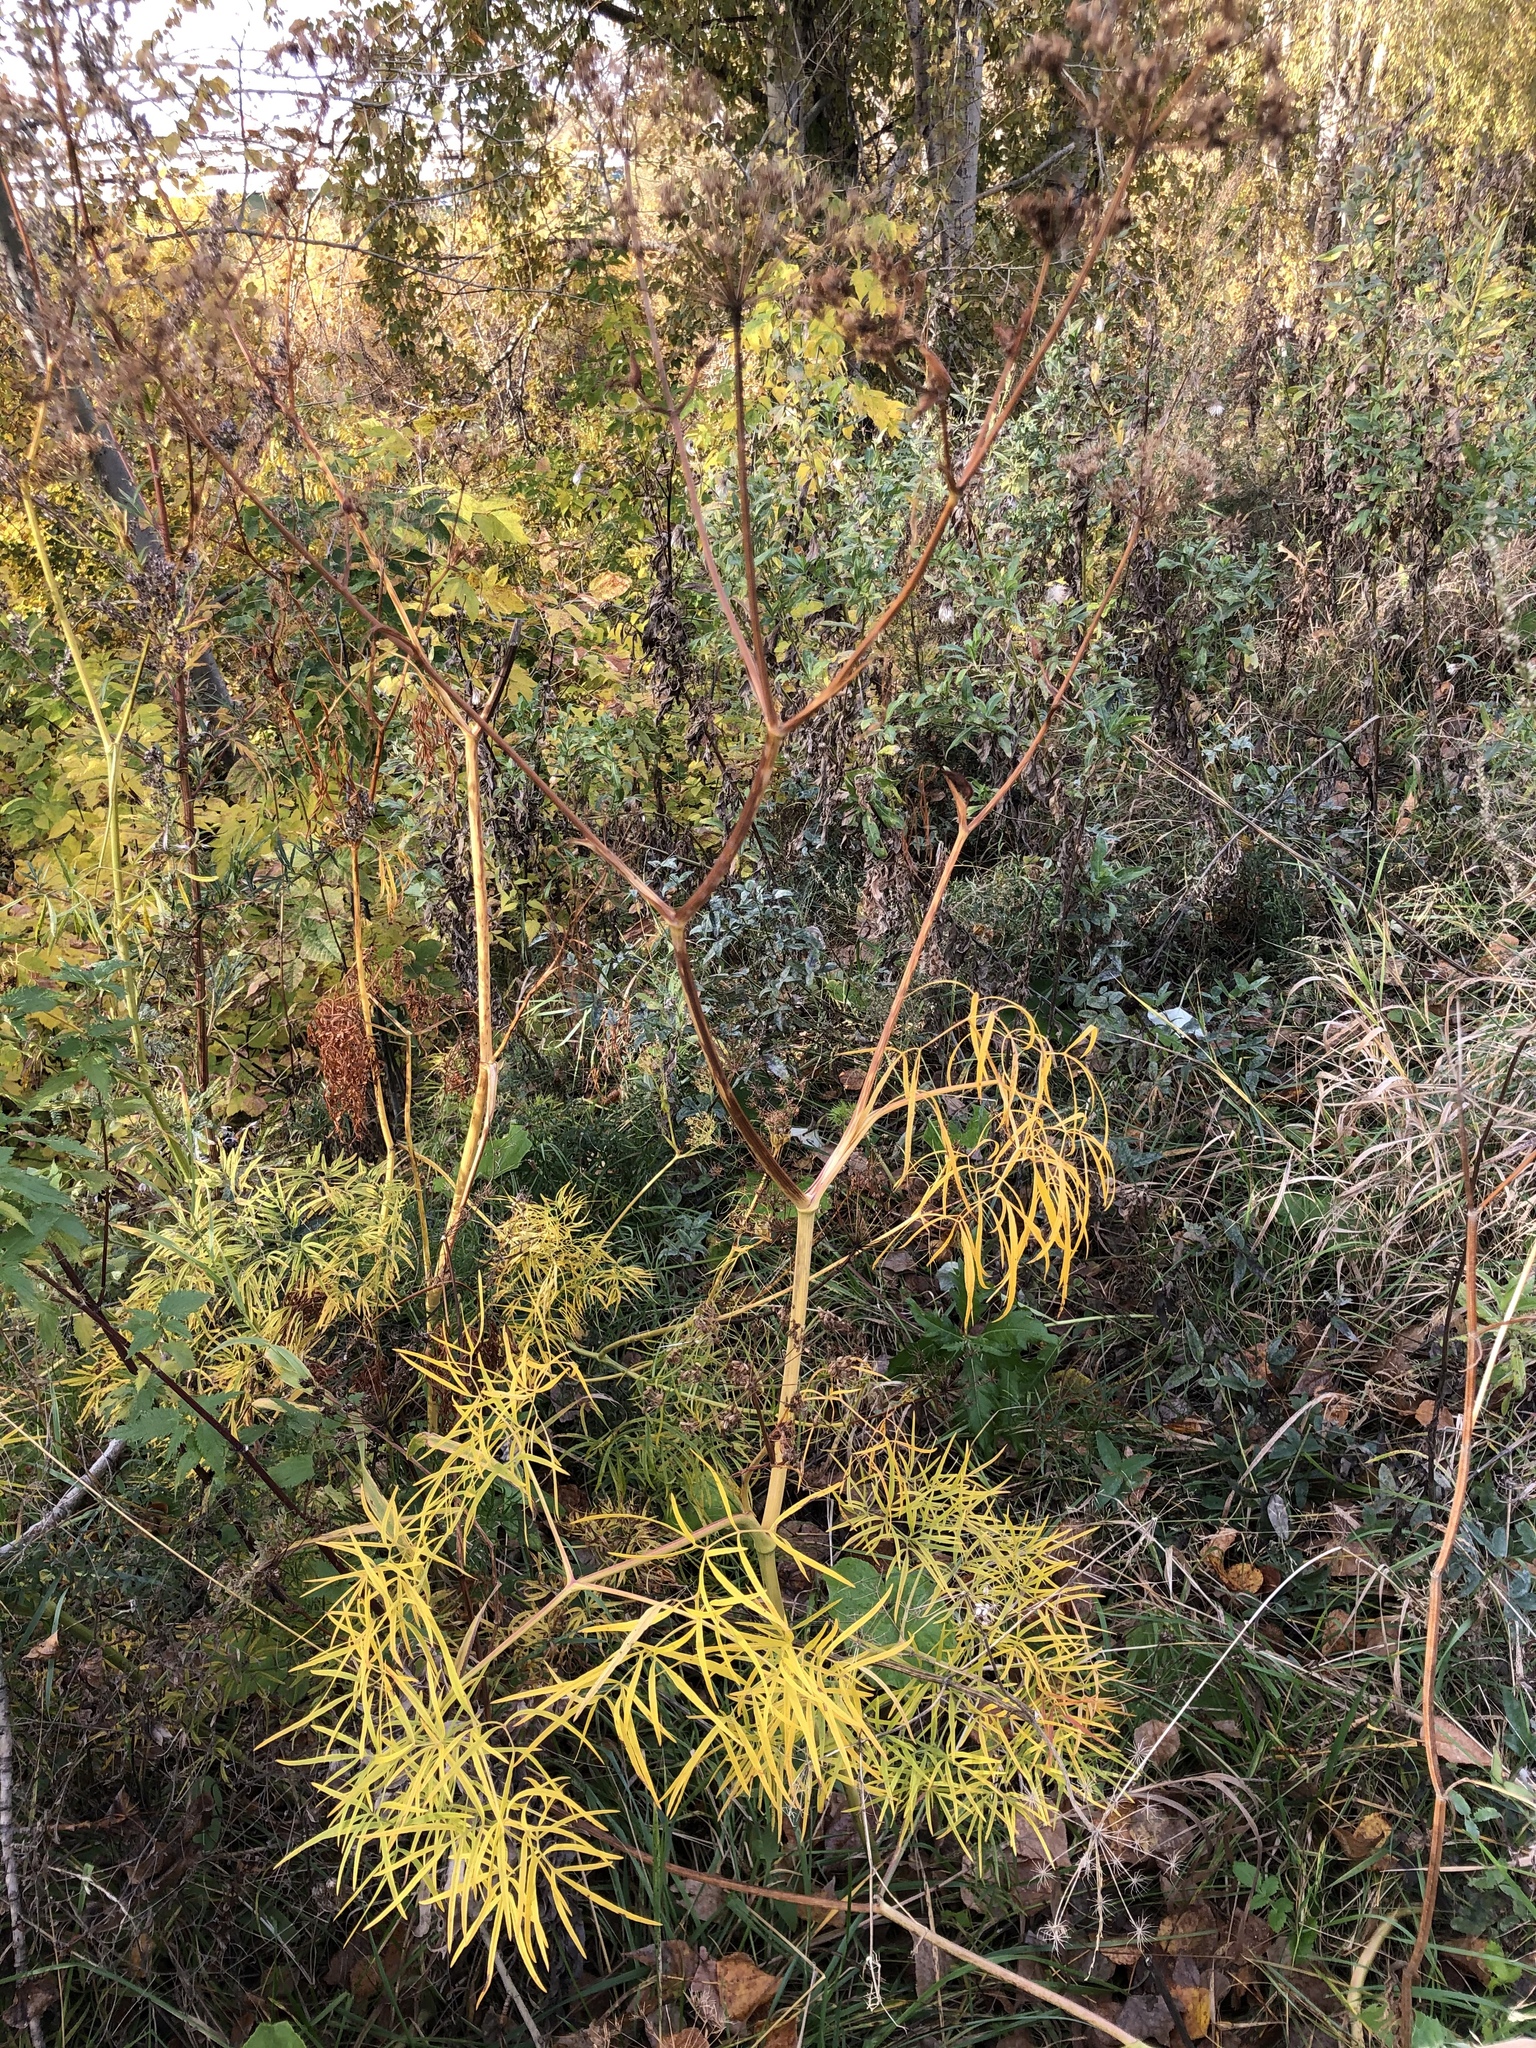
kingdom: Plantae
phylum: Tracheophyta
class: Magnoliopsida
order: Apiales
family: Apiaceae
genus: Cenolophium
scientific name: Cenolophium fischeri
